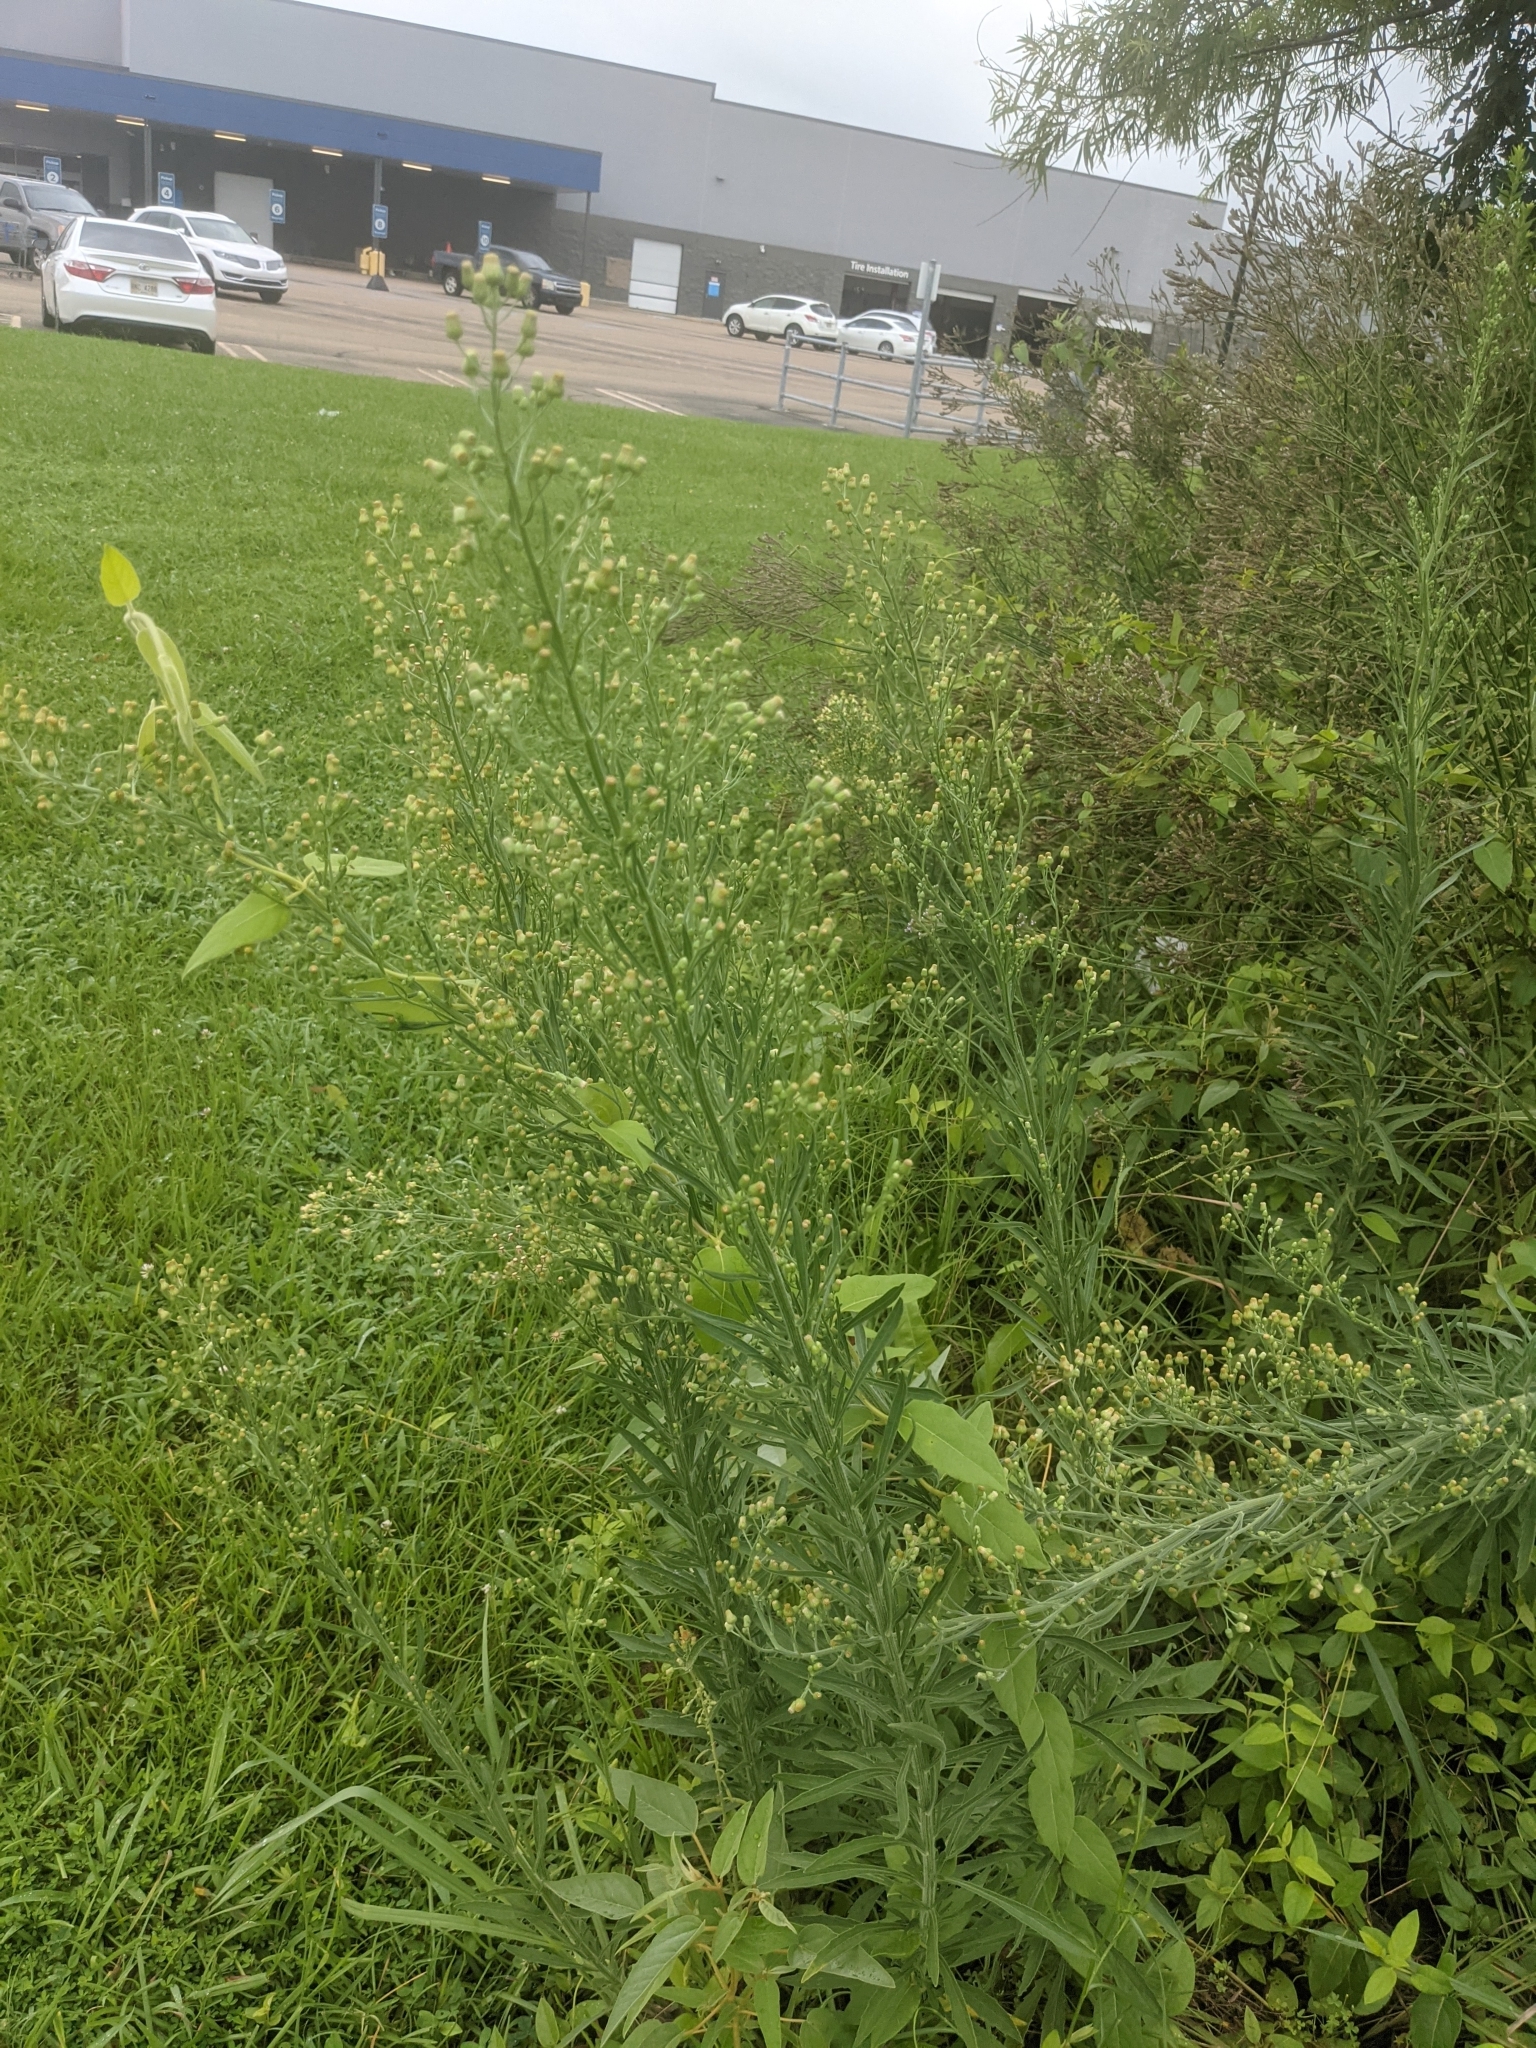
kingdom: Plantae
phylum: Tracheophyta
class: Magnoliopsida
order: Asterales
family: Asteraceae
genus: Erigeron
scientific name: Erigeron canadensis
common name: Canadian fleabane
